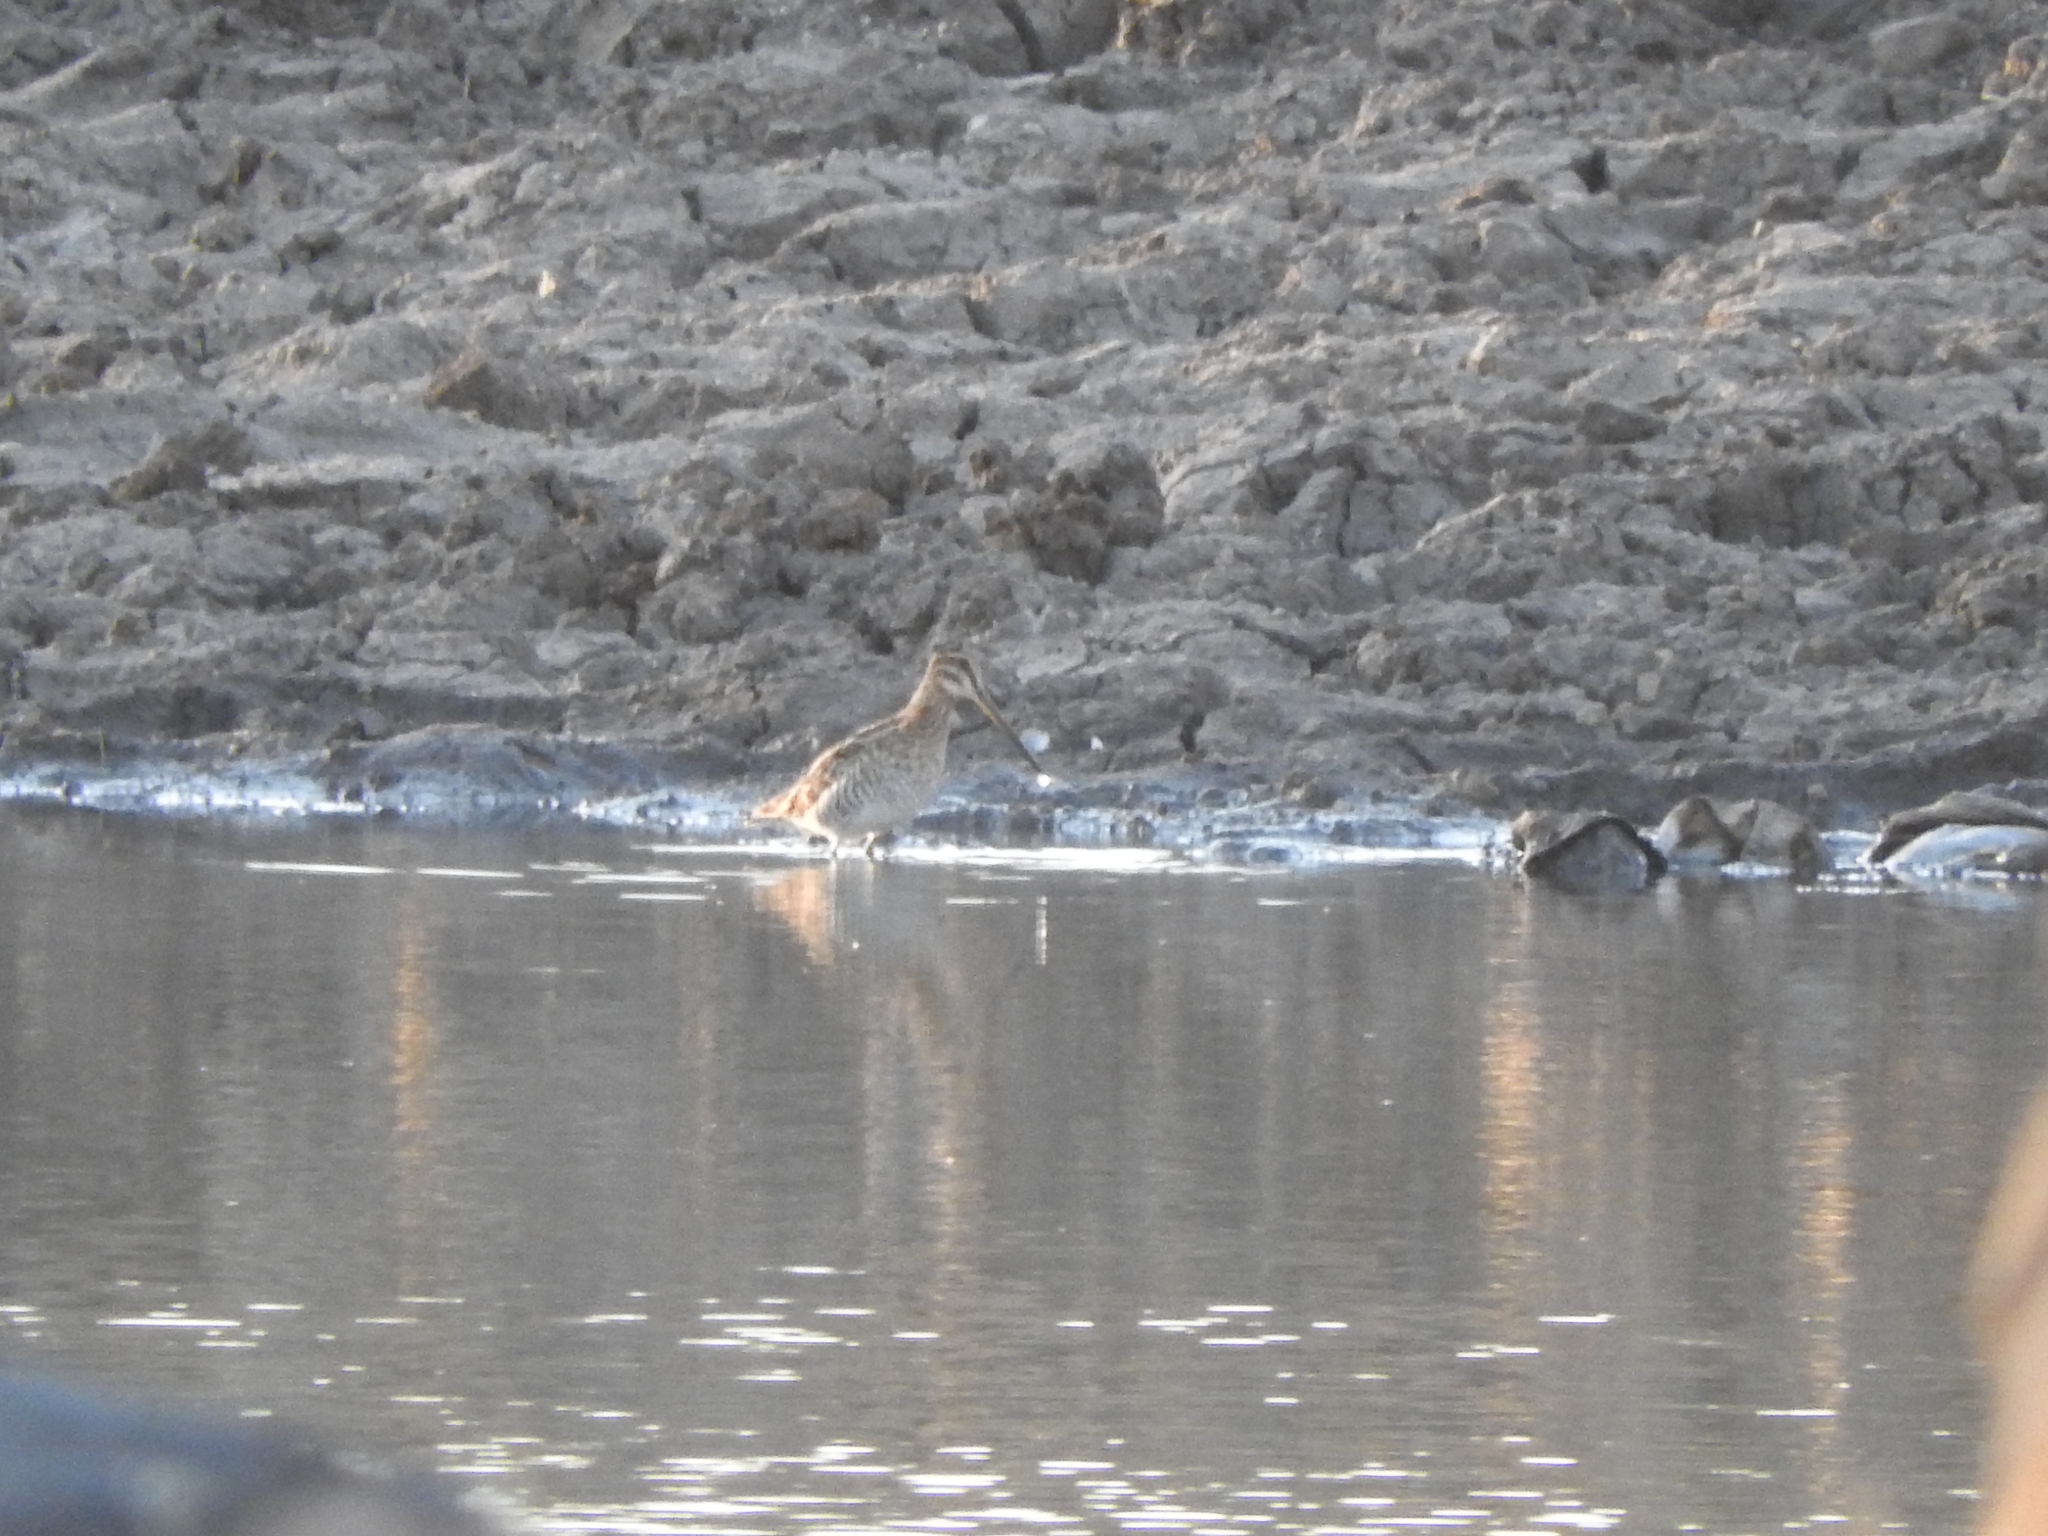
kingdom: Animalia
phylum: Chordata
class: Aves
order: Charadriiformes
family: Scolopacidae
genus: Gallinago
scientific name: Gallinago delicata
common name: Wilson's snipe
